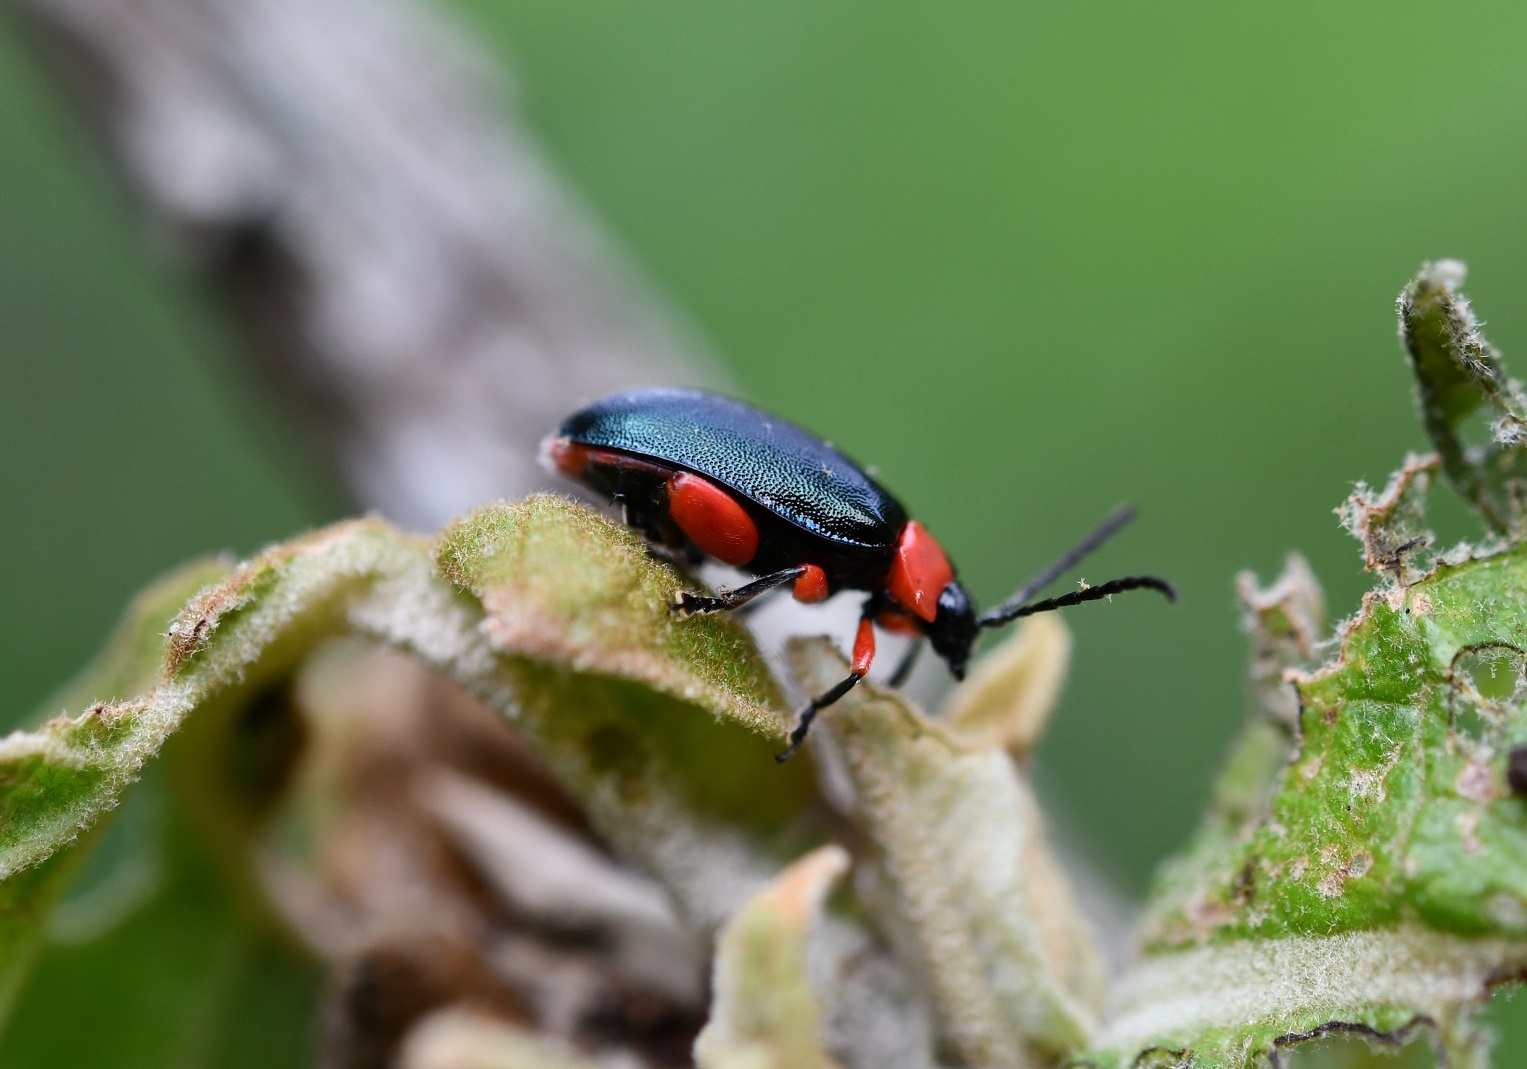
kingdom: Animalia
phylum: Arthropoda
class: Insecta
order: Coleoptera
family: Chrysomelidae
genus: Asphaera
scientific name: Asphaera abdominalis
